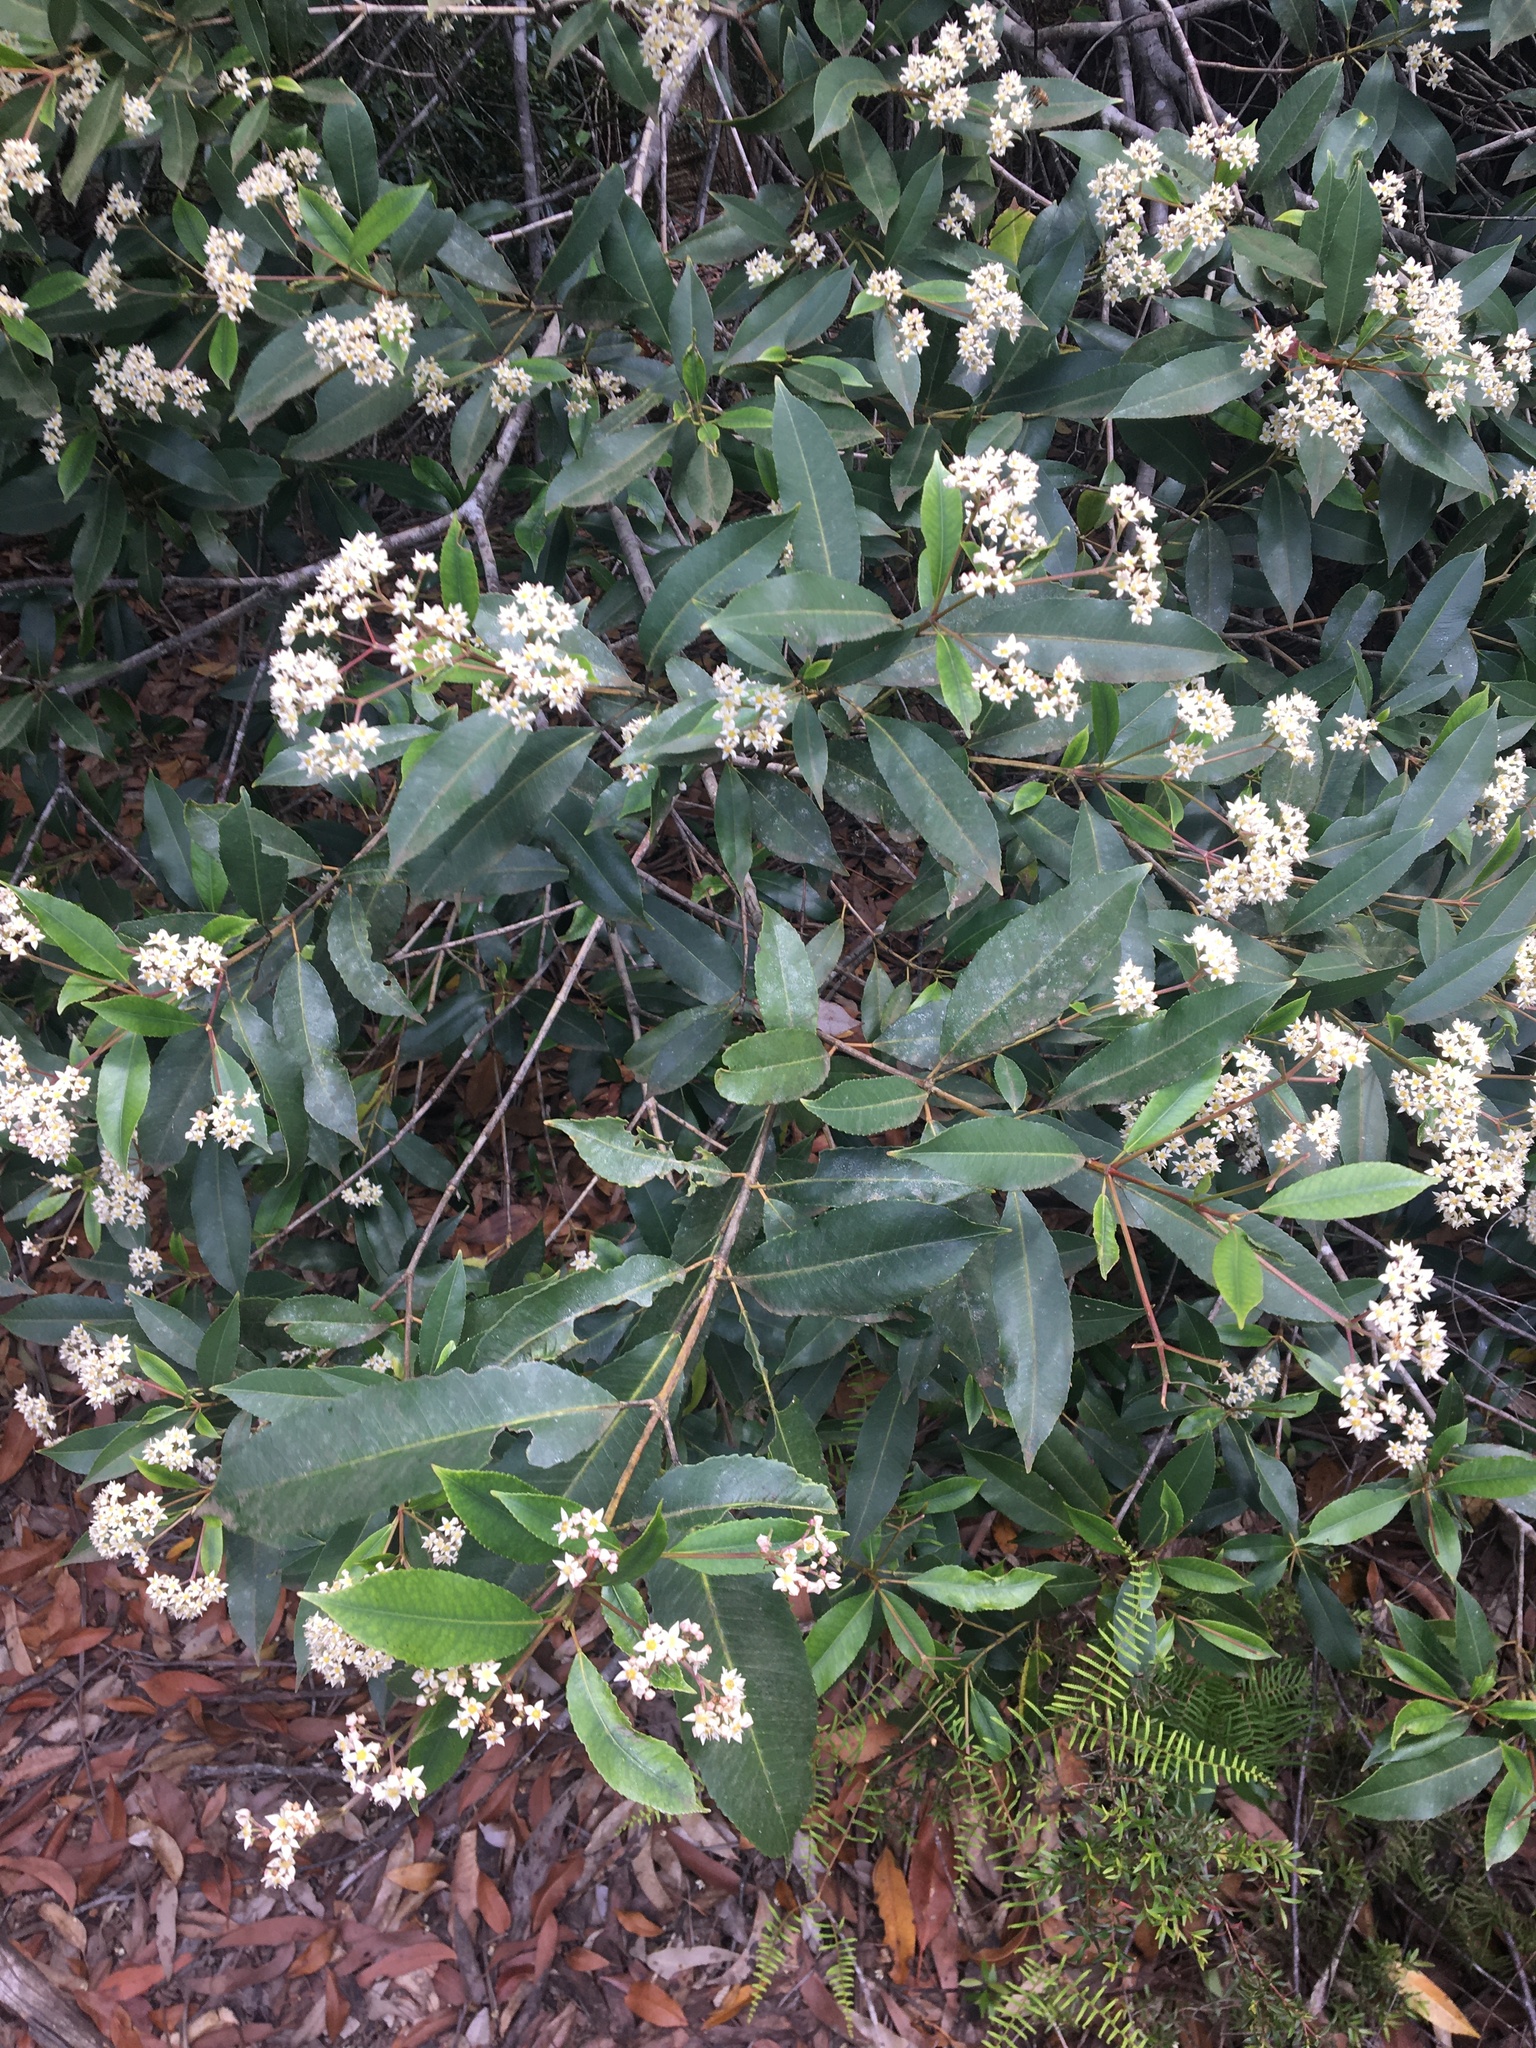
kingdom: Plantae
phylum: Tracheophyta
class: Magnoliopsida
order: Oxalidales
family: Cunoniaceae
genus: Ceratopetalum
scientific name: Ceratopetalum apetalum
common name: Scented satinwood
